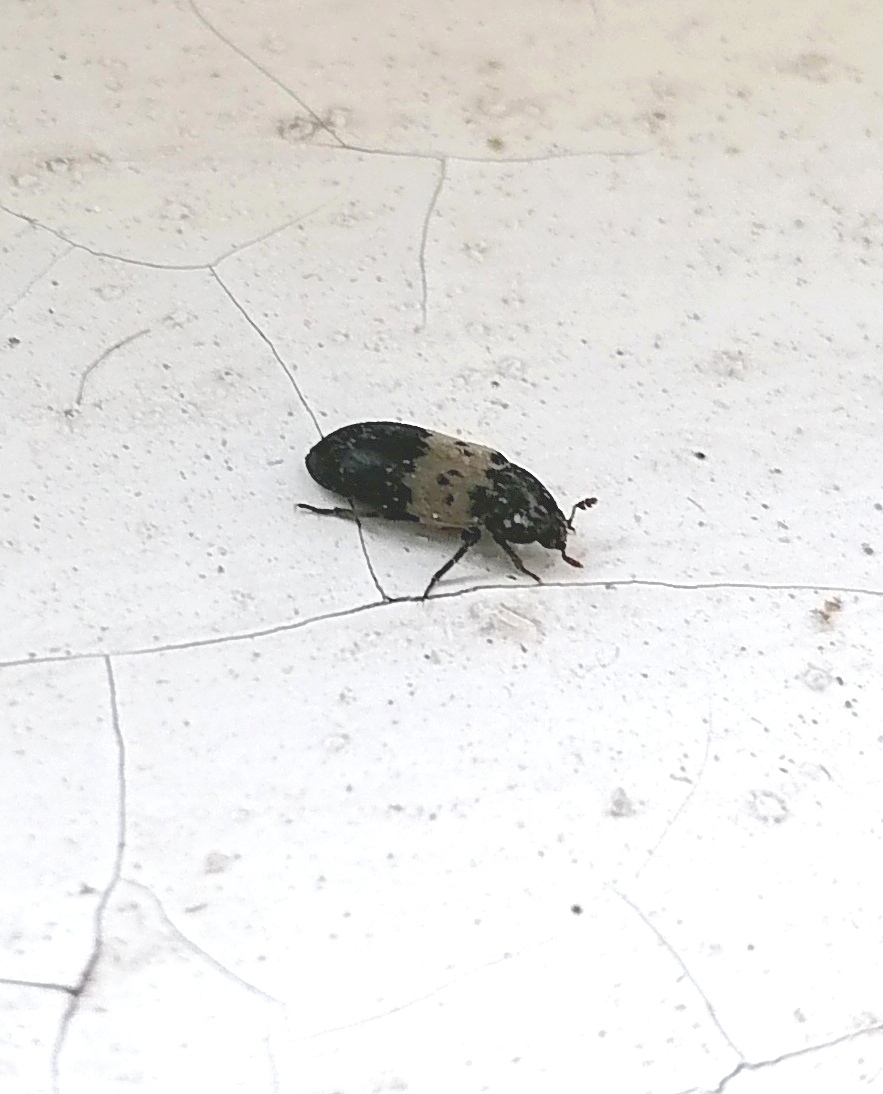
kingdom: Animalia
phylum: Arthropoda
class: Insecta
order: Coleoptera
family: Dermestidae
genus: Dermestes
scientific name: Dermestes lardarius
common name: Larder beetle
